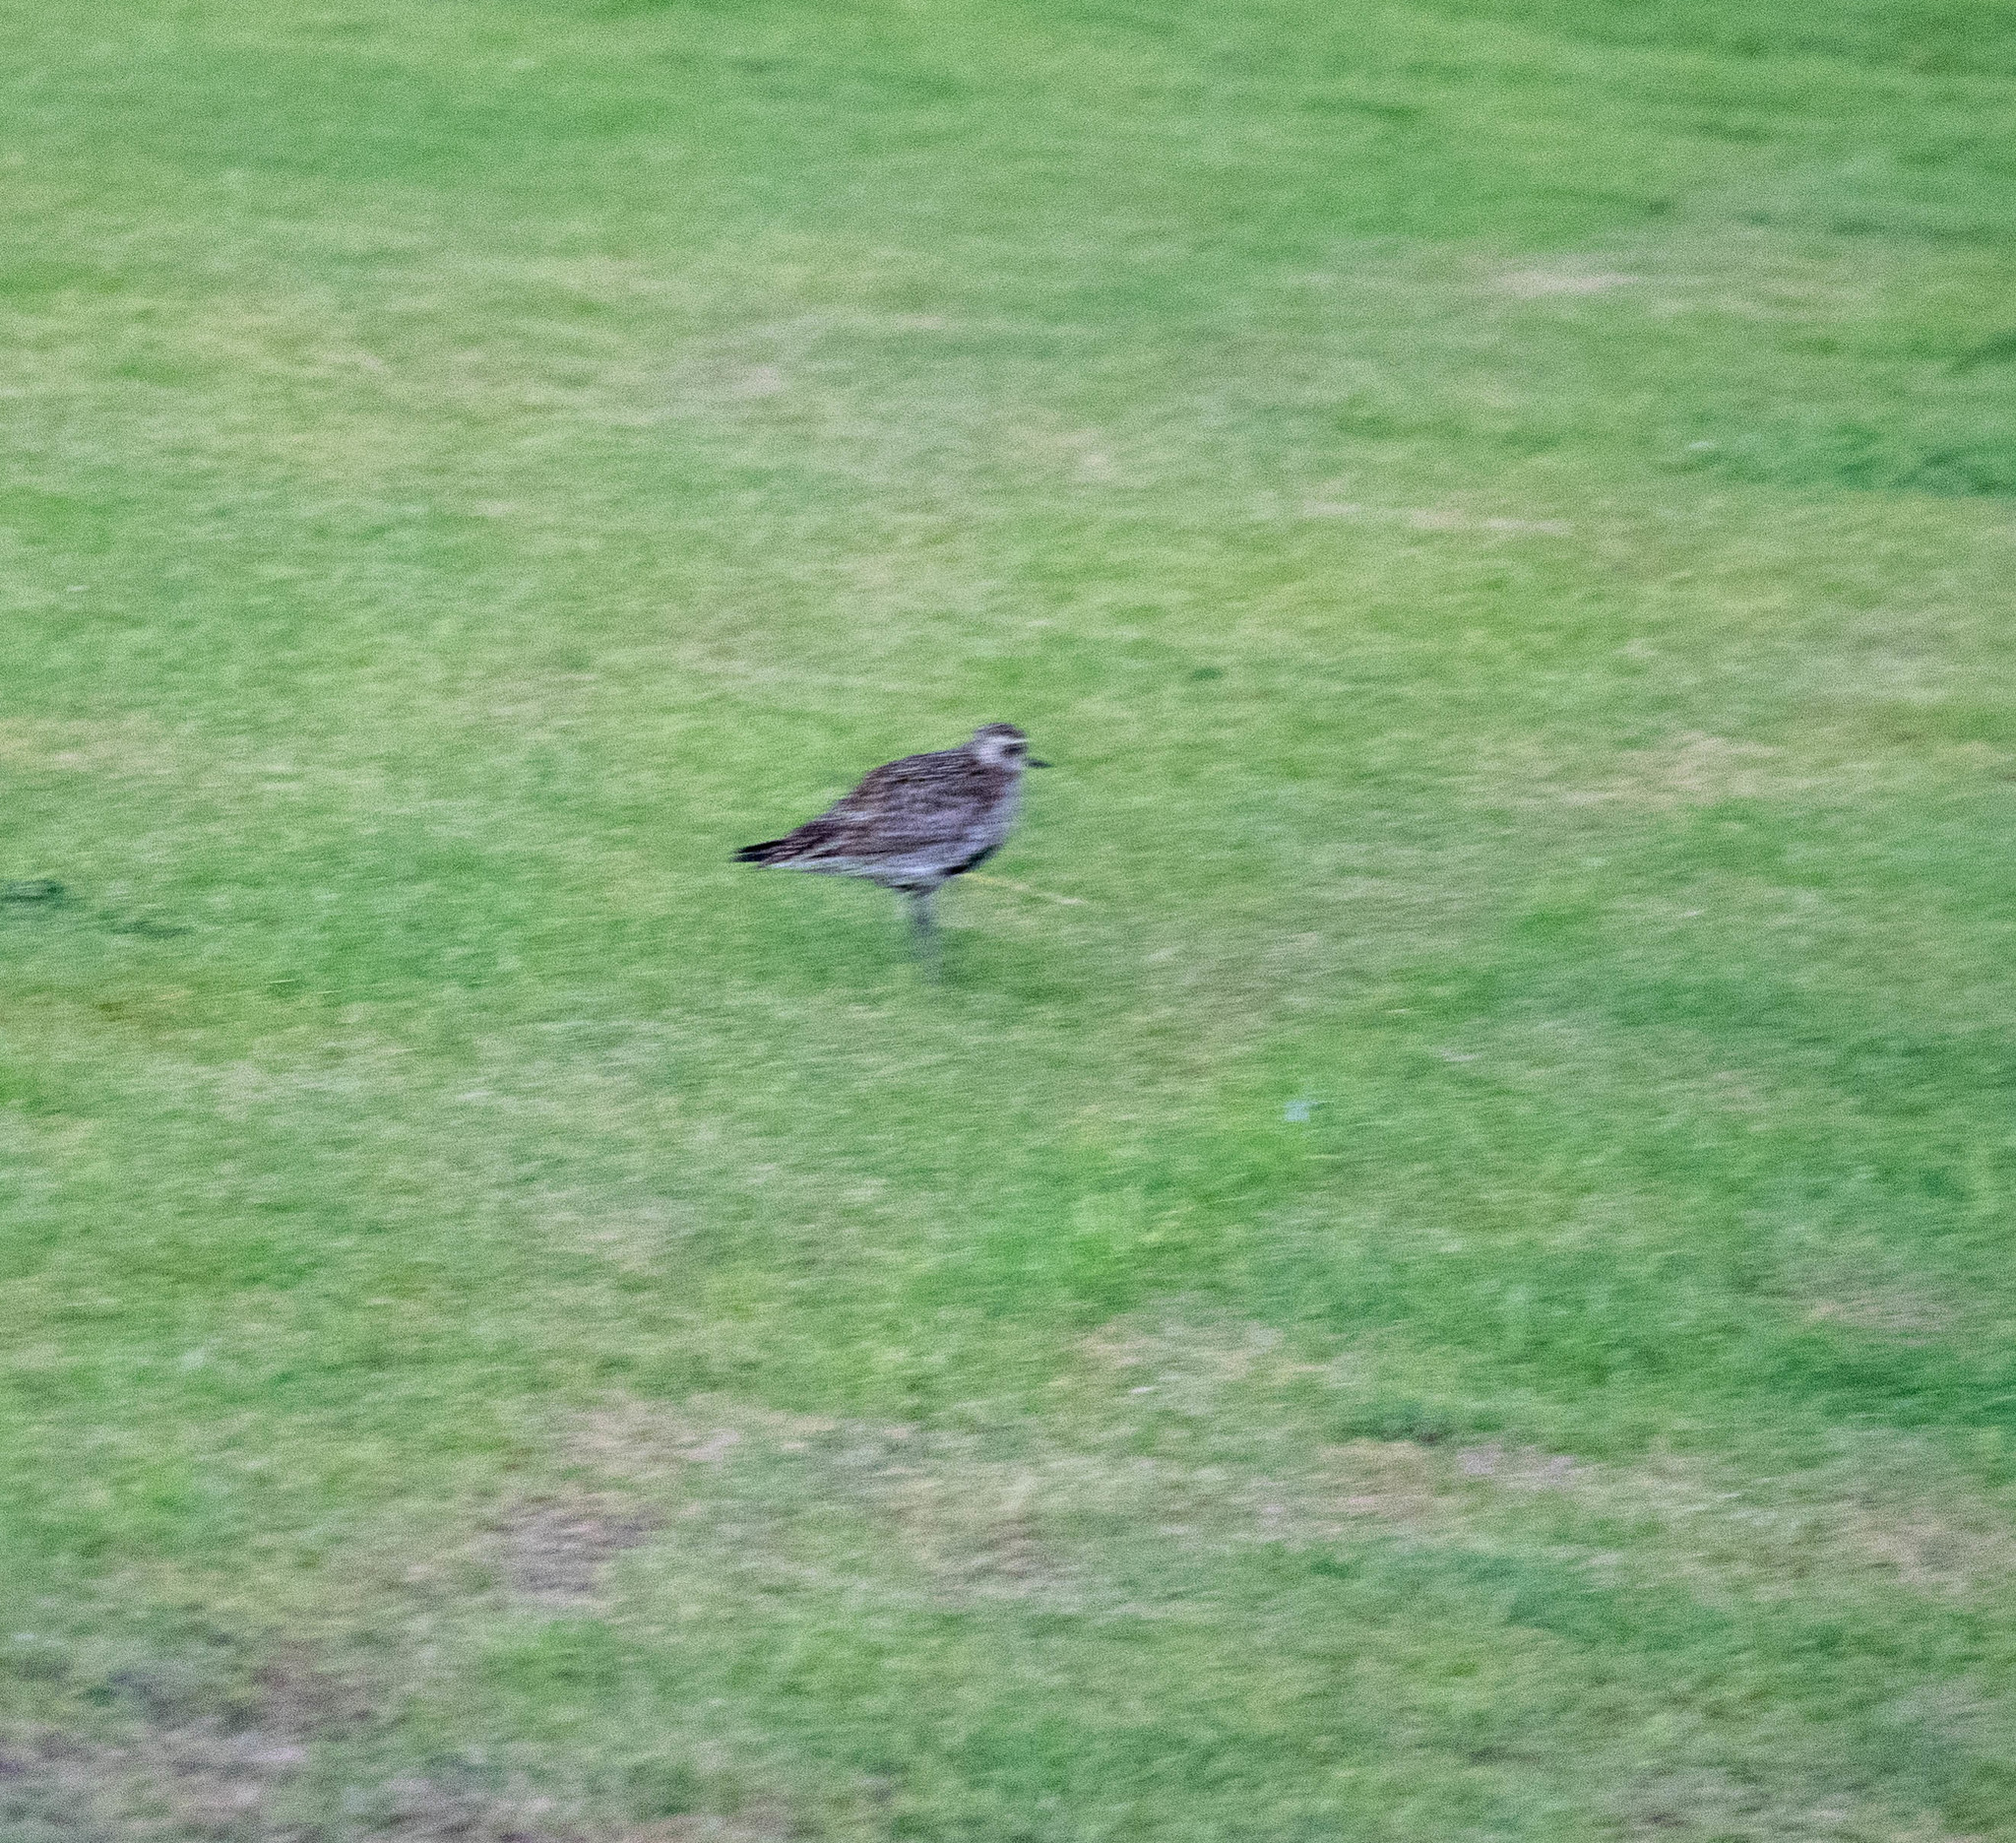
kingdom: Animalia
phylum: Chordata
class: Aves
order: Charadriiformes
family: Charadriidae
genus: Pluvialis
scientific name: Pluvialis fulva
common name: Pacific golden plover
